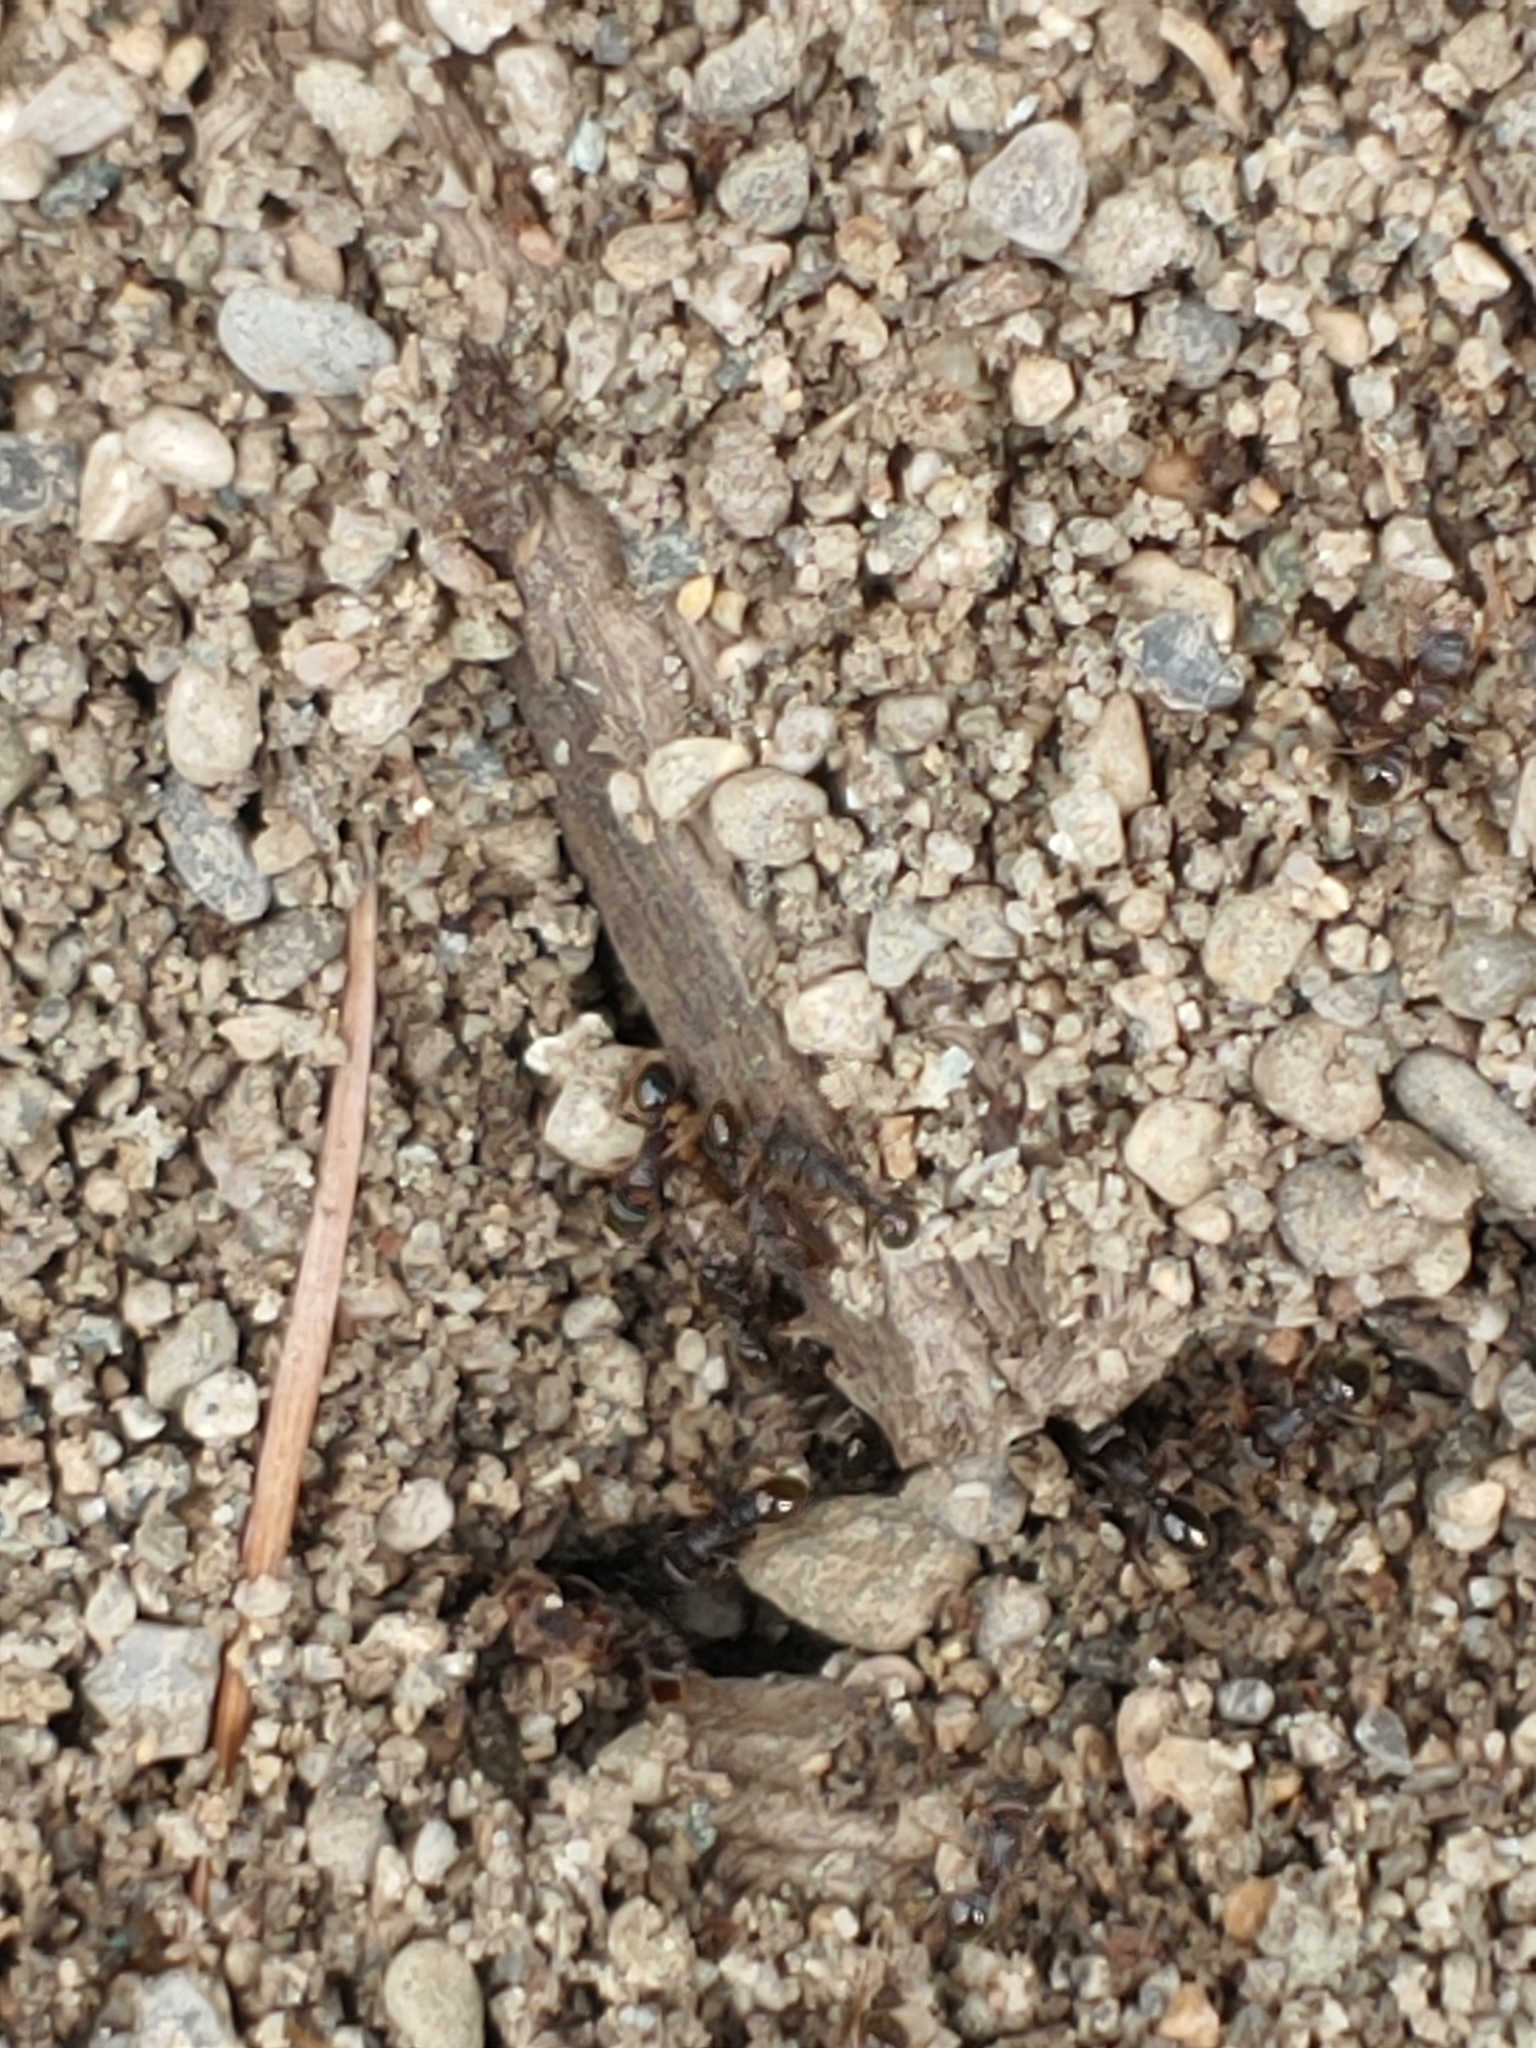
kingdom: Animalia
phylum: Arthropoda
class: Insecta
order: Hymenoptera
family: Formicidae
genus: Tetramorium
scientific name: Tetramorium immigrans
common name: Pavement ant
